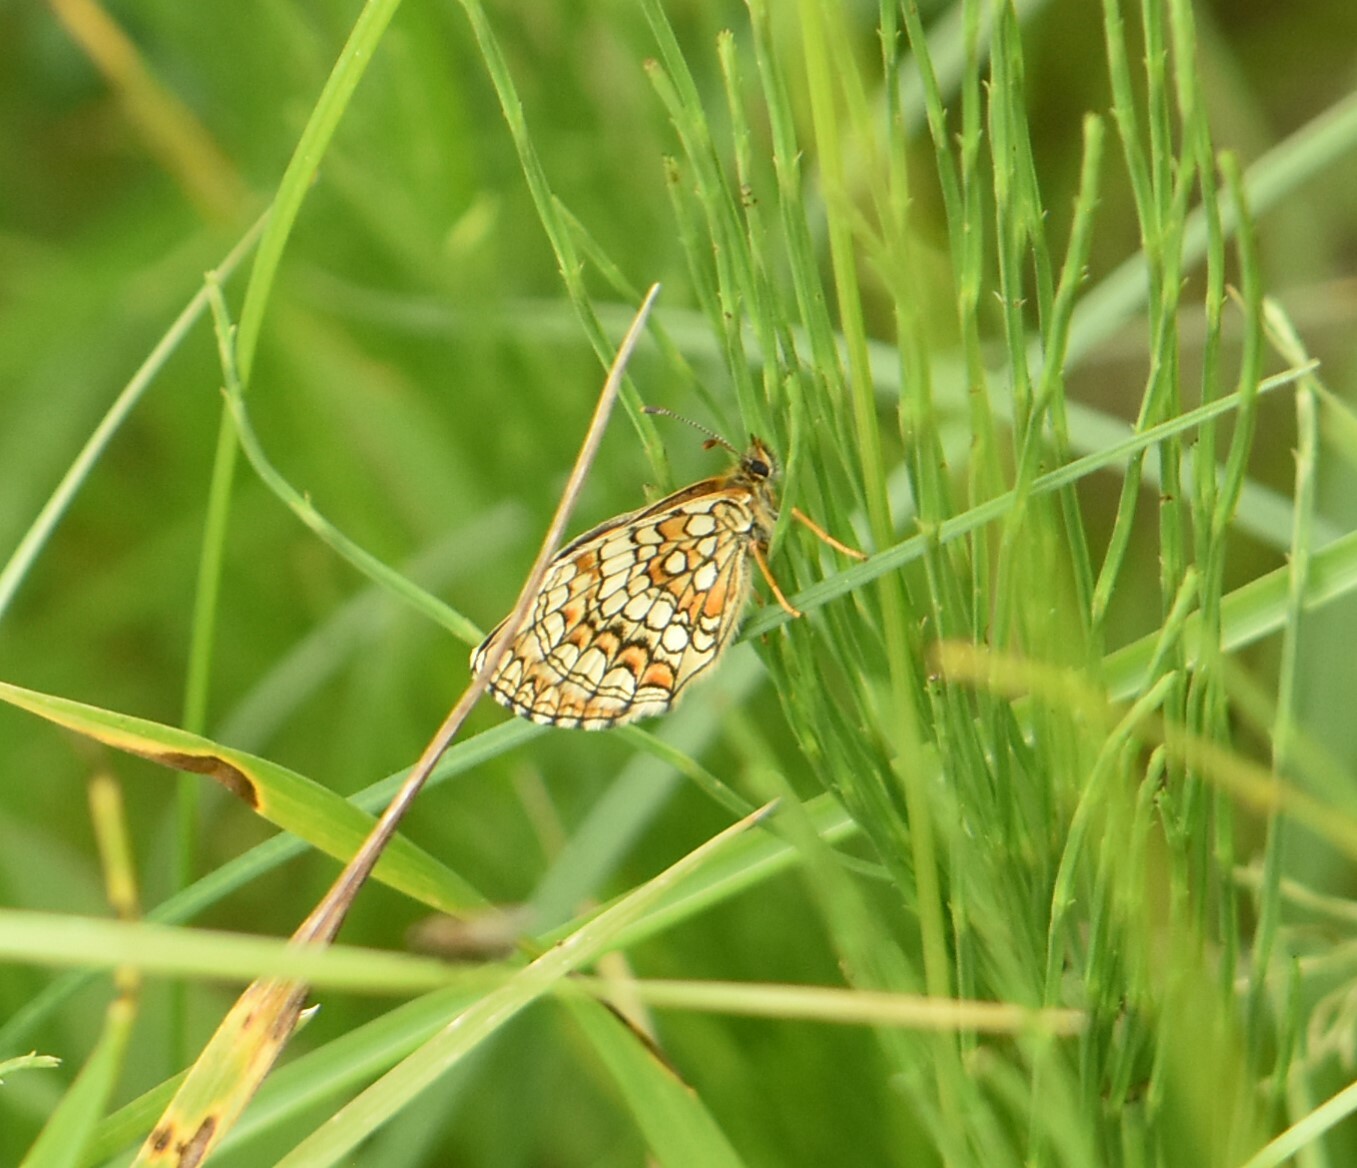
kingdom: Animalia
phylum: Arthropoda
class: Insecta
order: Lepidoptera
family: Nymphalidae
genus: Melitaea
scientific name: Melitaea athalia
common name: Heath fritillary
